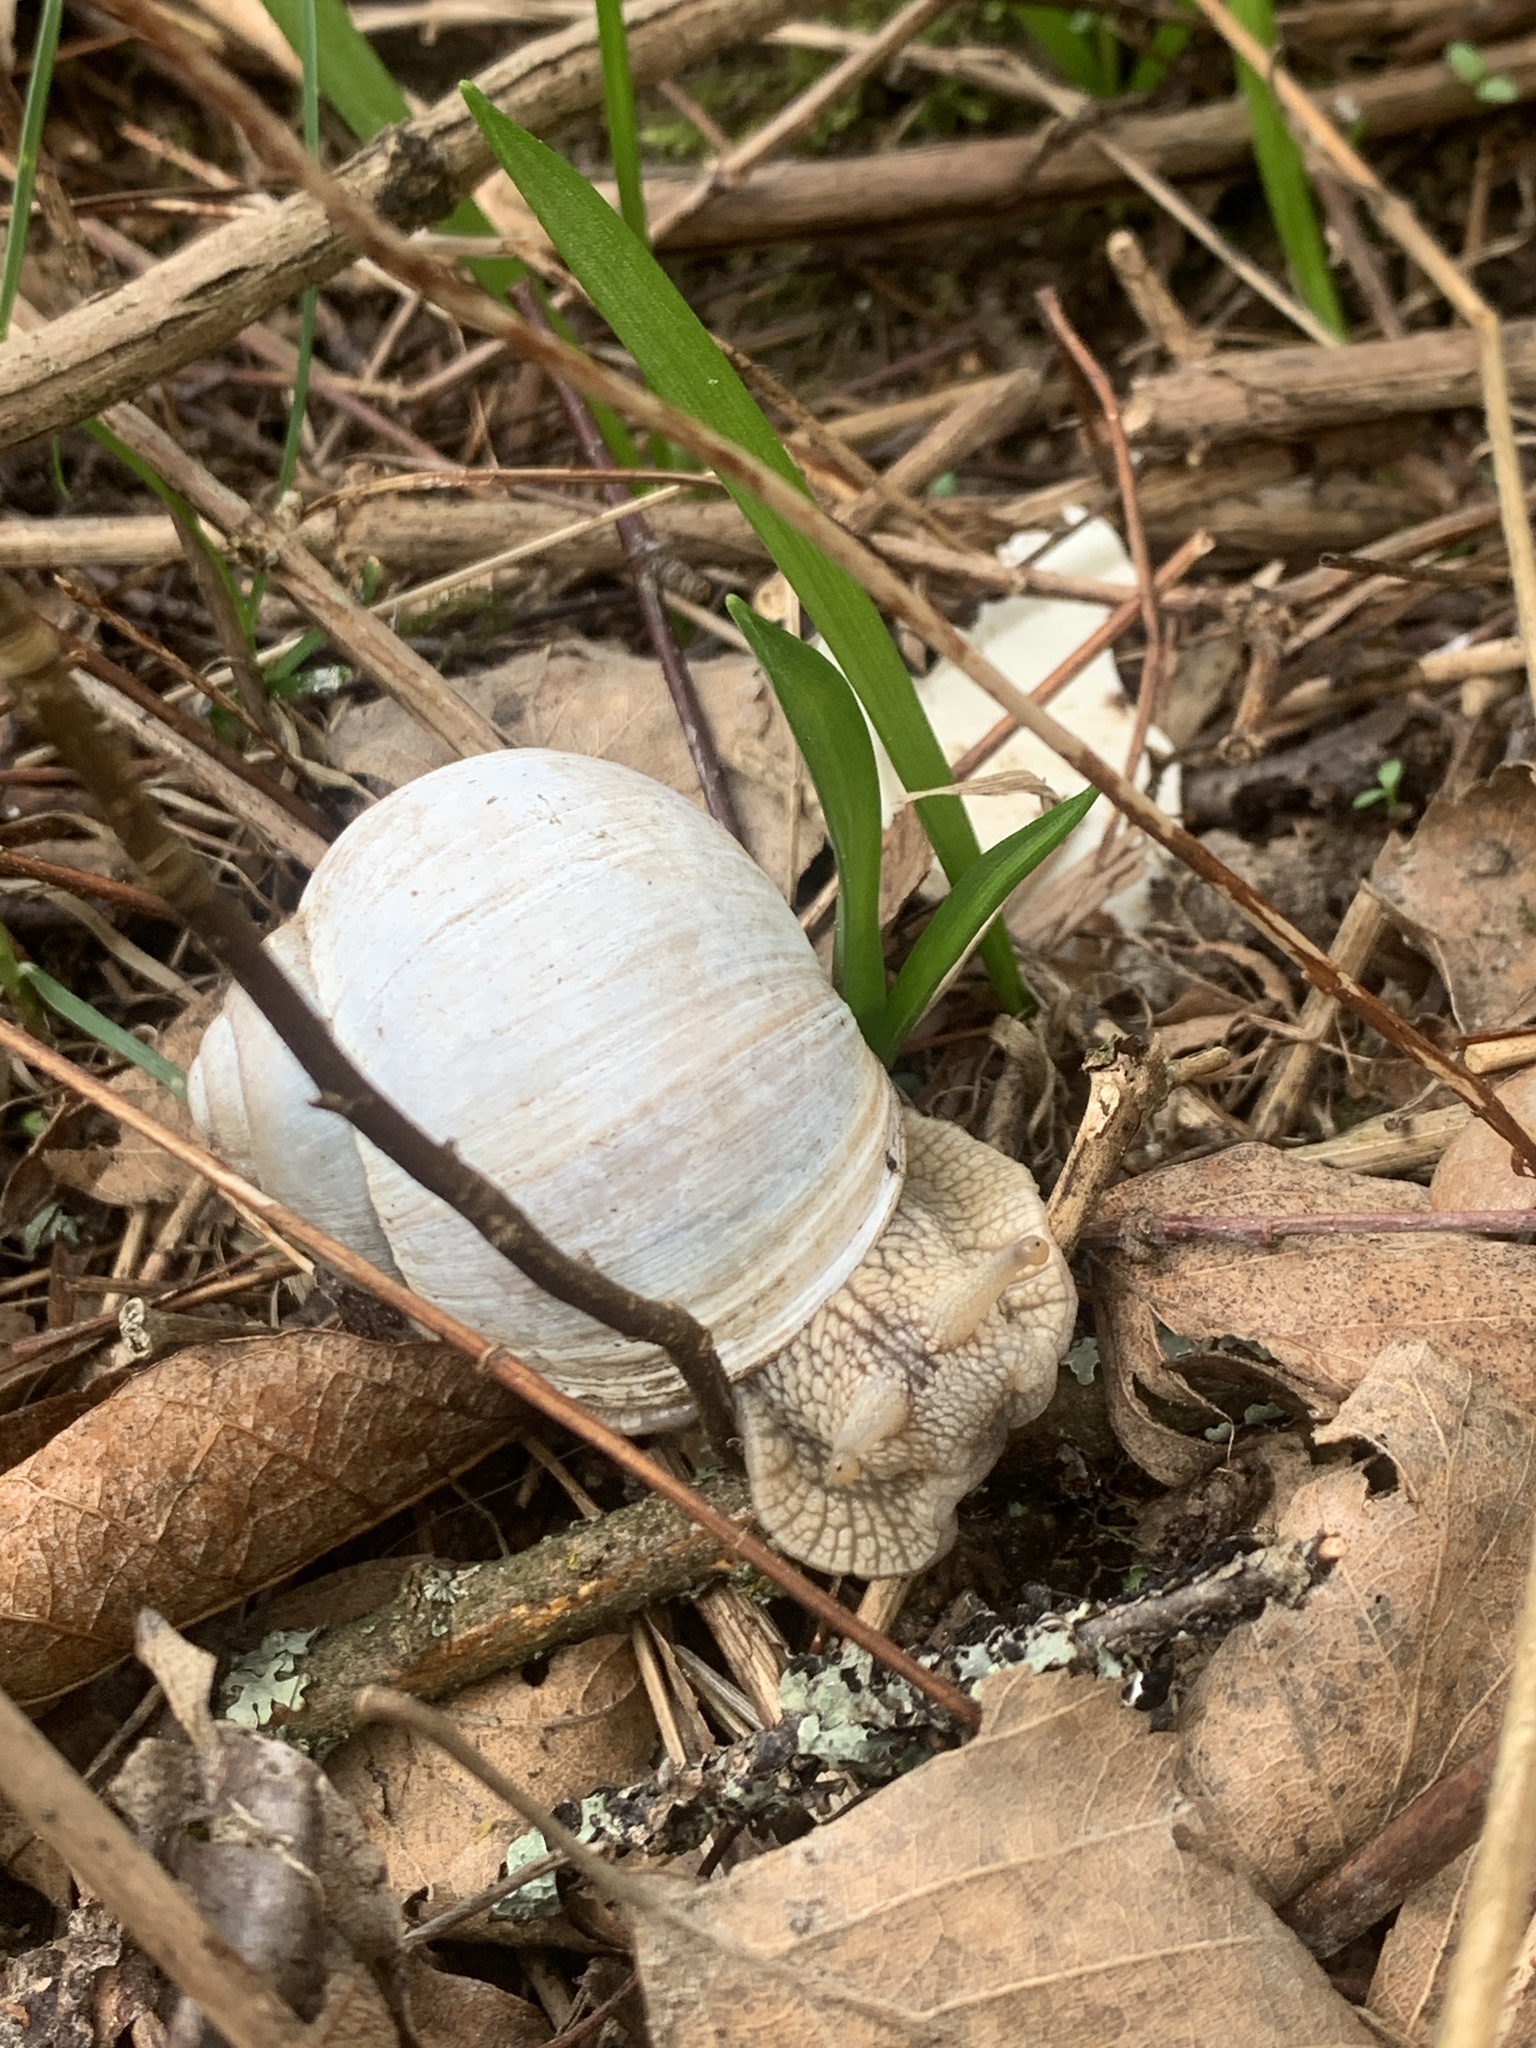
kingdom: Animalia
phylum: Mollusca
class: Gastropoda
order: Stylommatophora
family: Helicidae
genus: Helix
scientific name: Helix pomatia
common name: Roman snail
